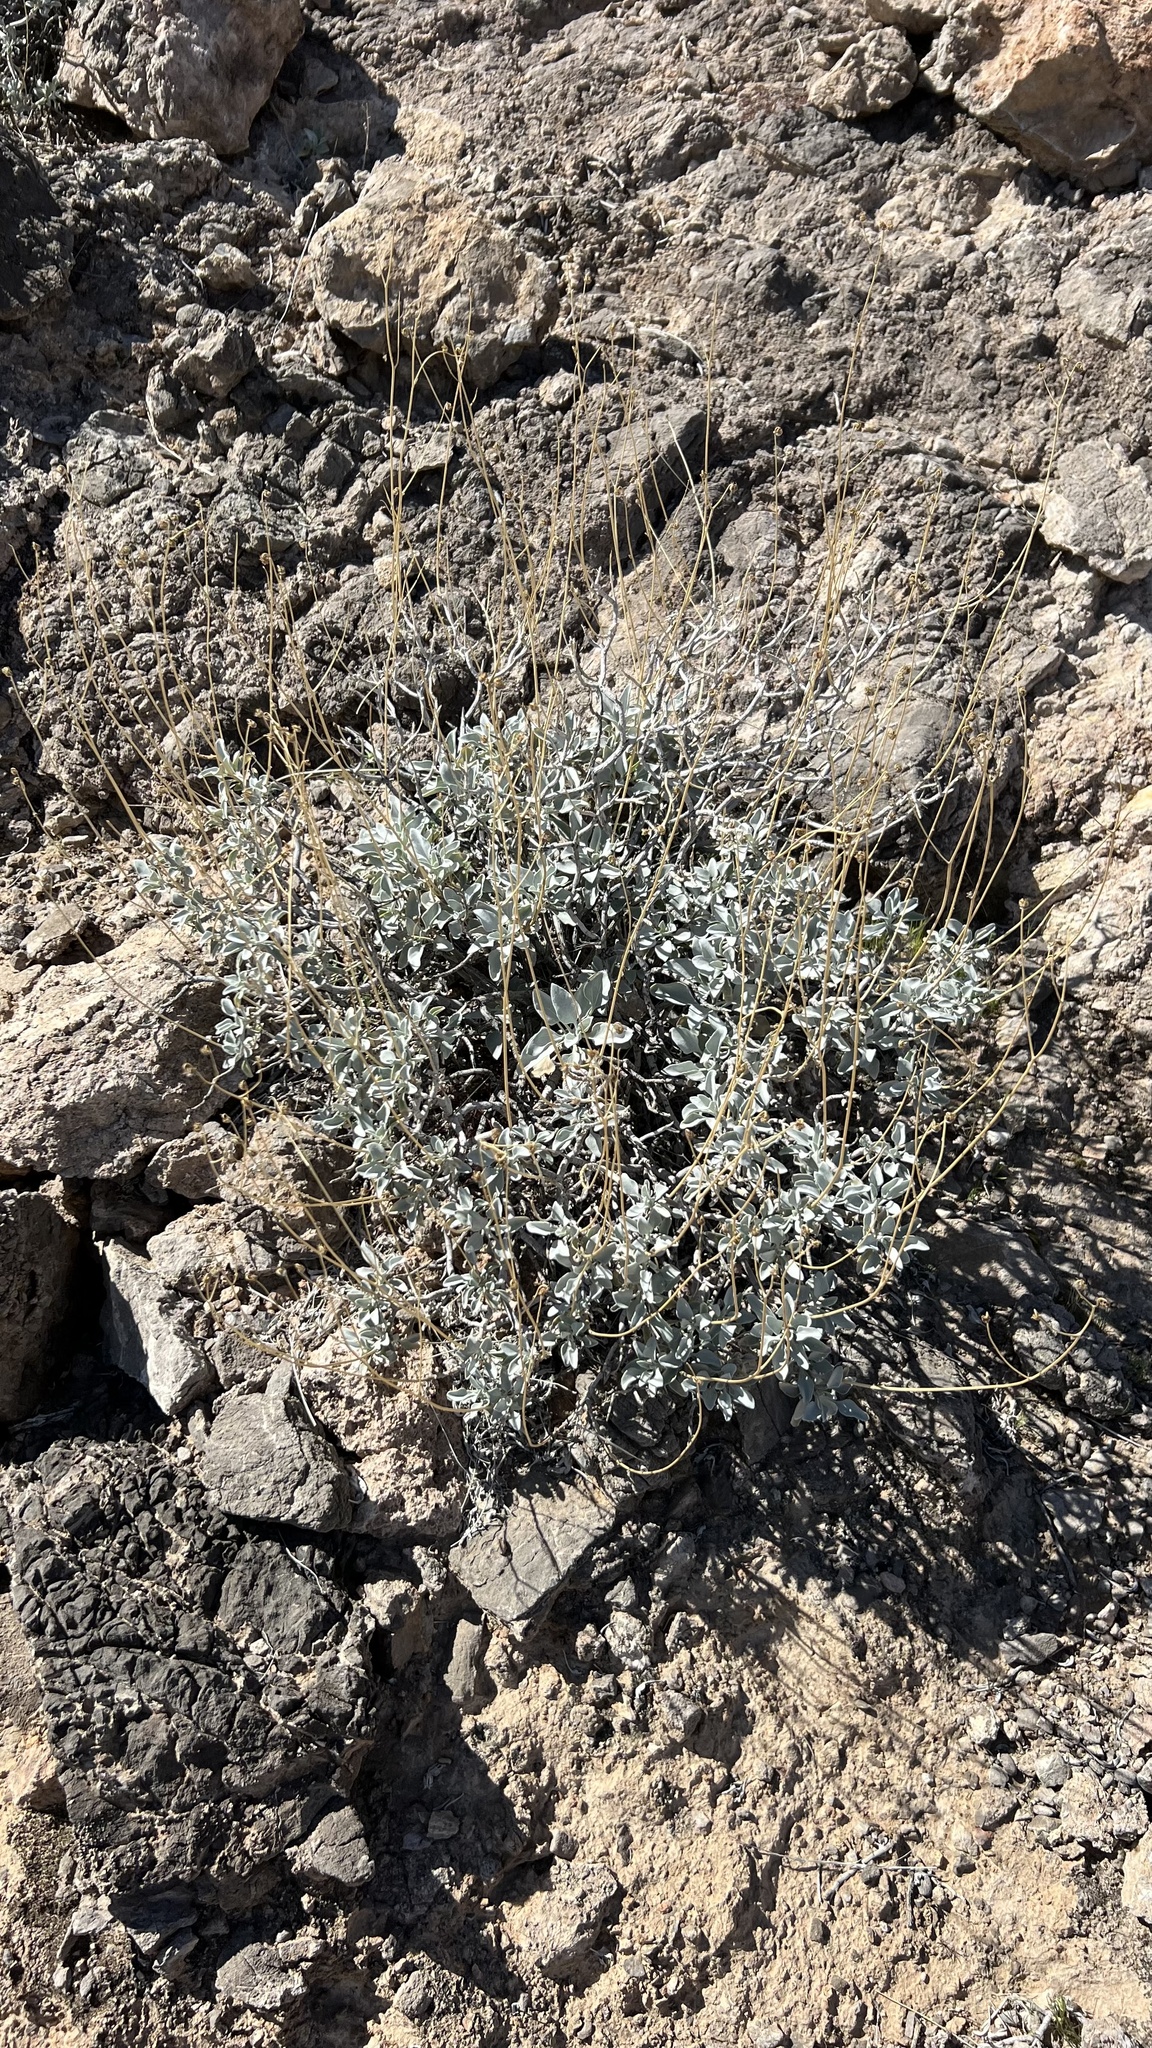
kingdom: Plantae
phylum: Tracheophyta
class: Magnoliopsida
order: Asterales
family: Asteraceae
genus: Encelia
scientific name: Encelia farinosa
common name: Brittlebush
